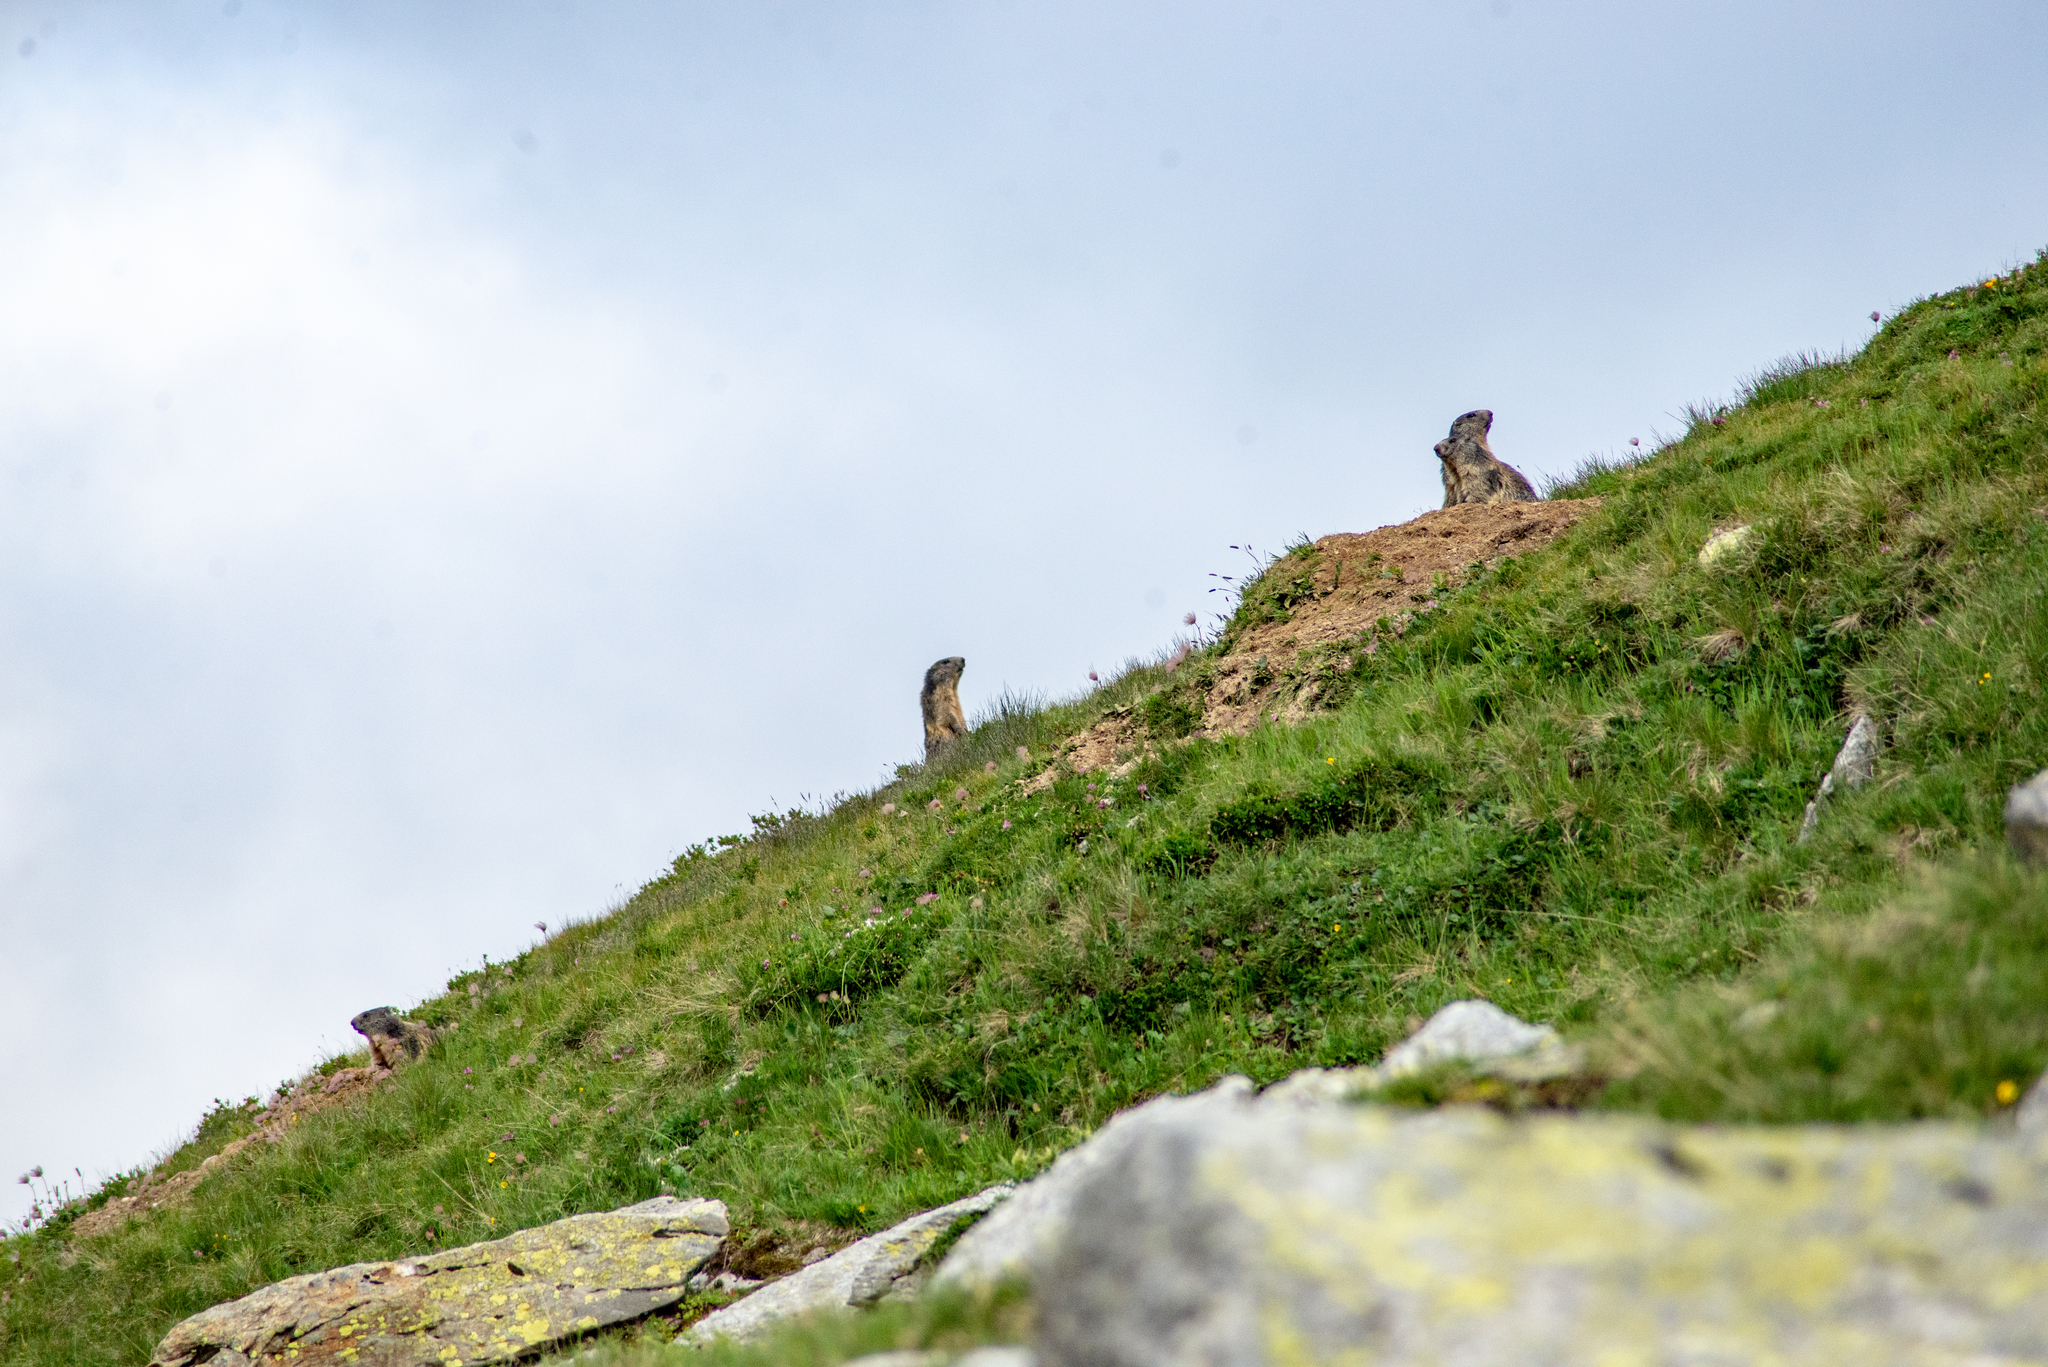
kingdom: Animalia
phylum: Chordata
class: Mammalia
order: Rodentia
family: Sciuridae
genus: Marmota
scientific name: Marmota marmota
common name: Alpine marmot
